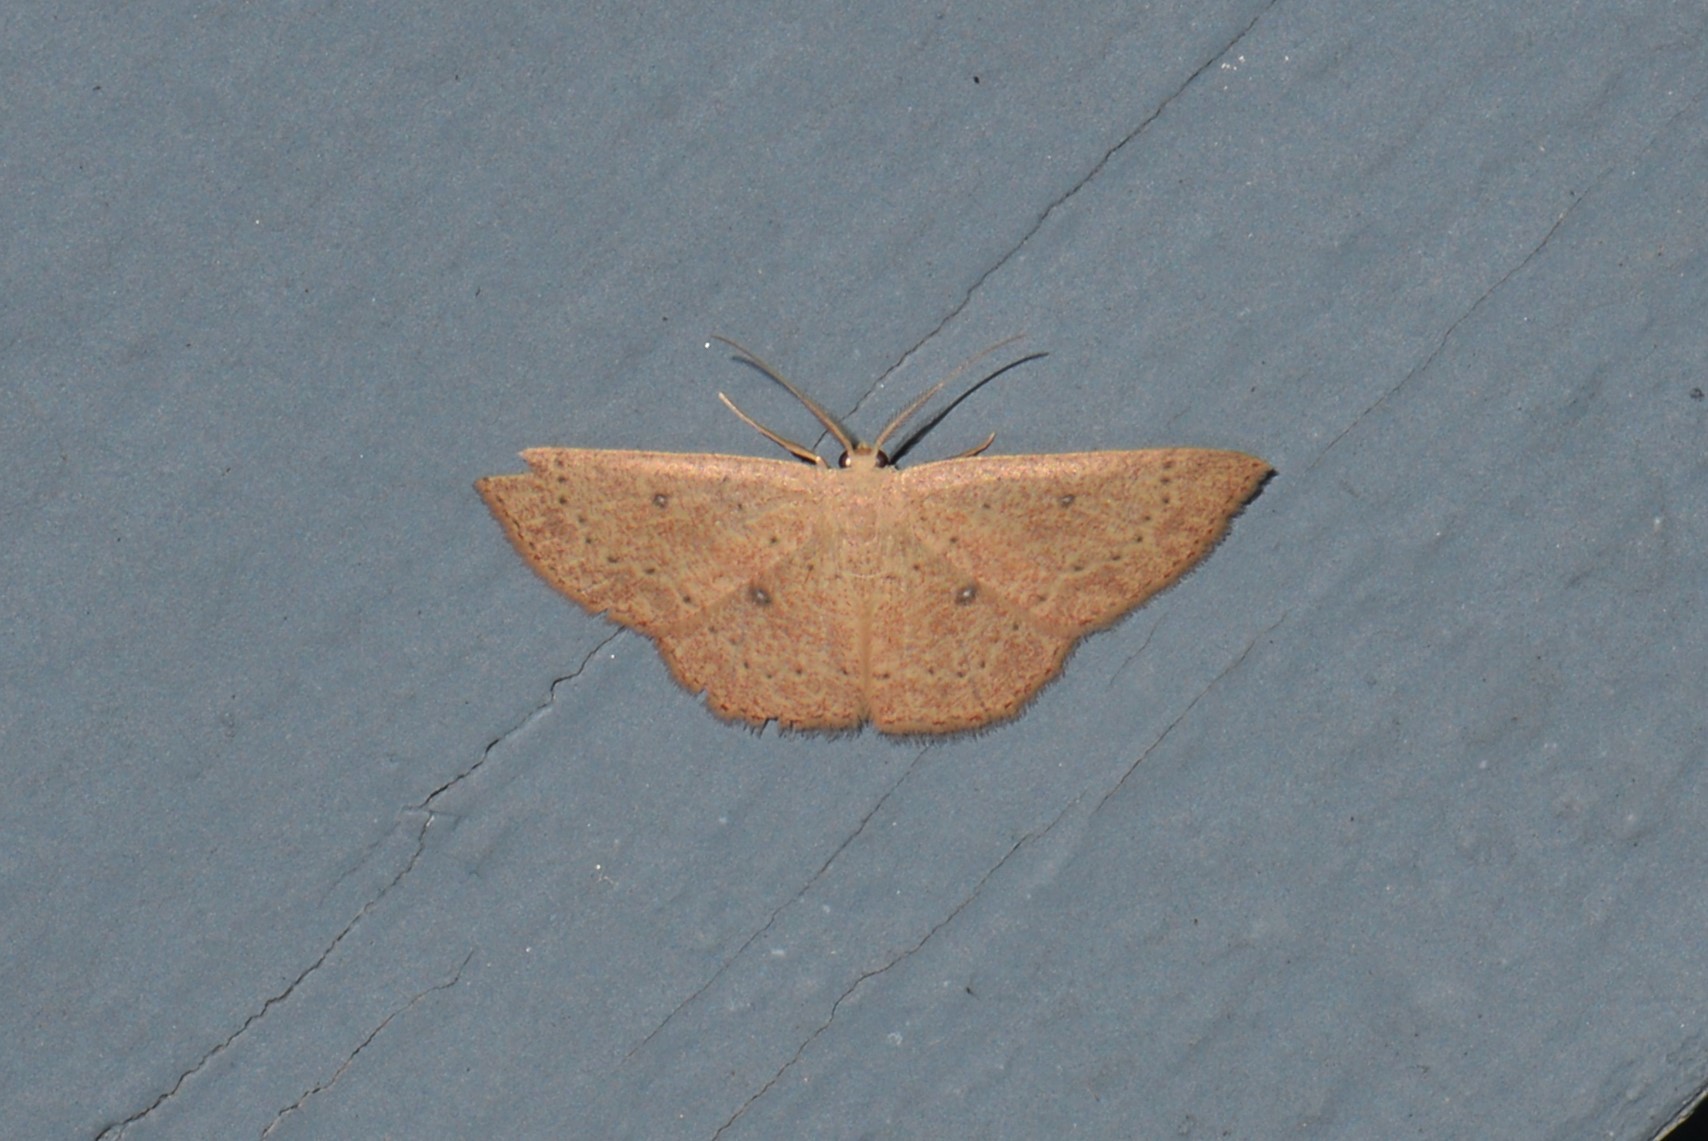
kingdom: Animalia
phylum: Arthropoda
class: Insecta
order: Lepidoptera
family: Geometridae
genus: Cyclophora
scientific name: Cyclophora packardi
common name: Packard's wave
